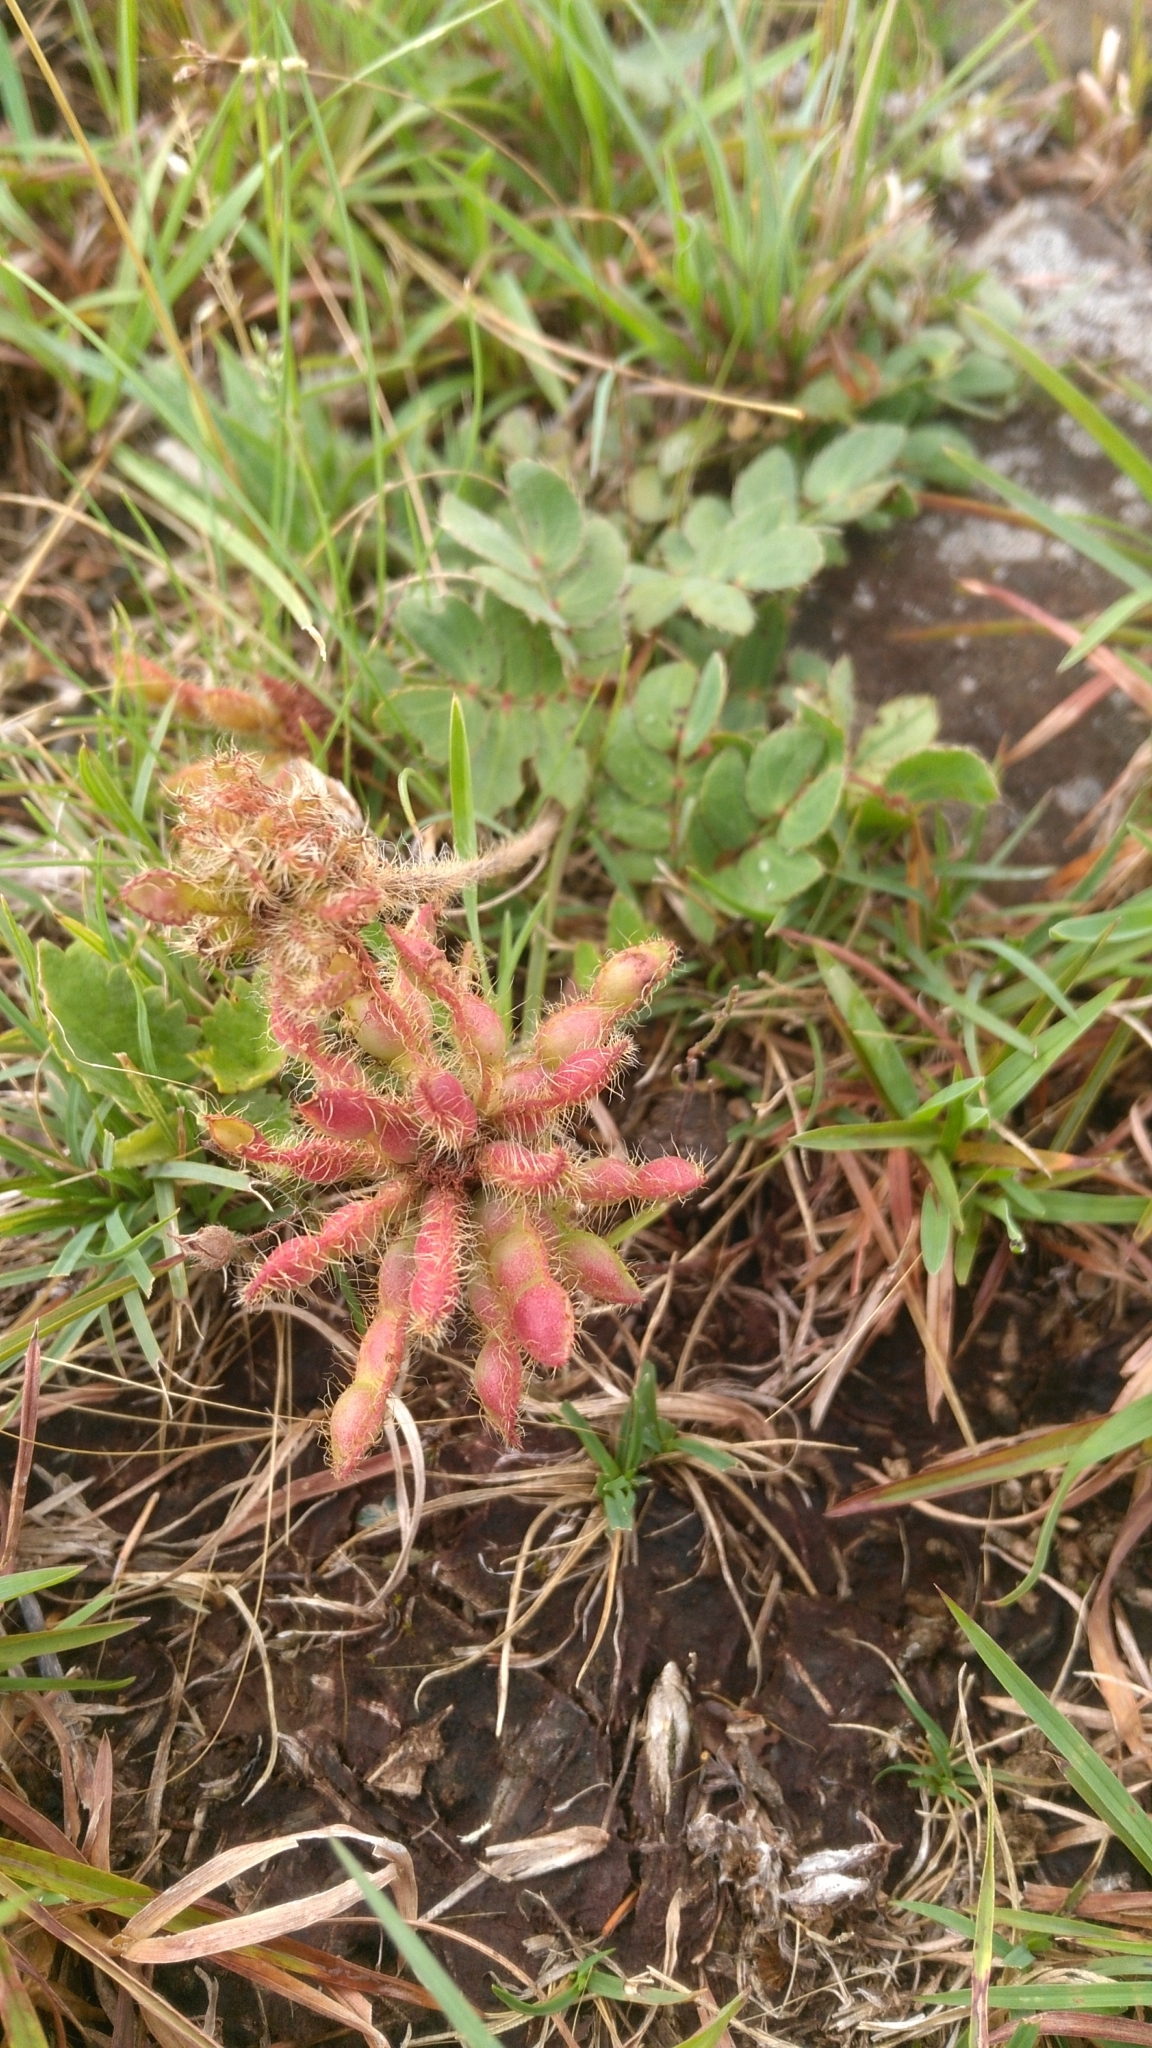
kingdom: Plantae
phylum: Tracheophyta
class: Magnoliopsida
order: Fabales
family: Fabaceae
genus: Mimosa
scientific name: Mimosa flagellaris
